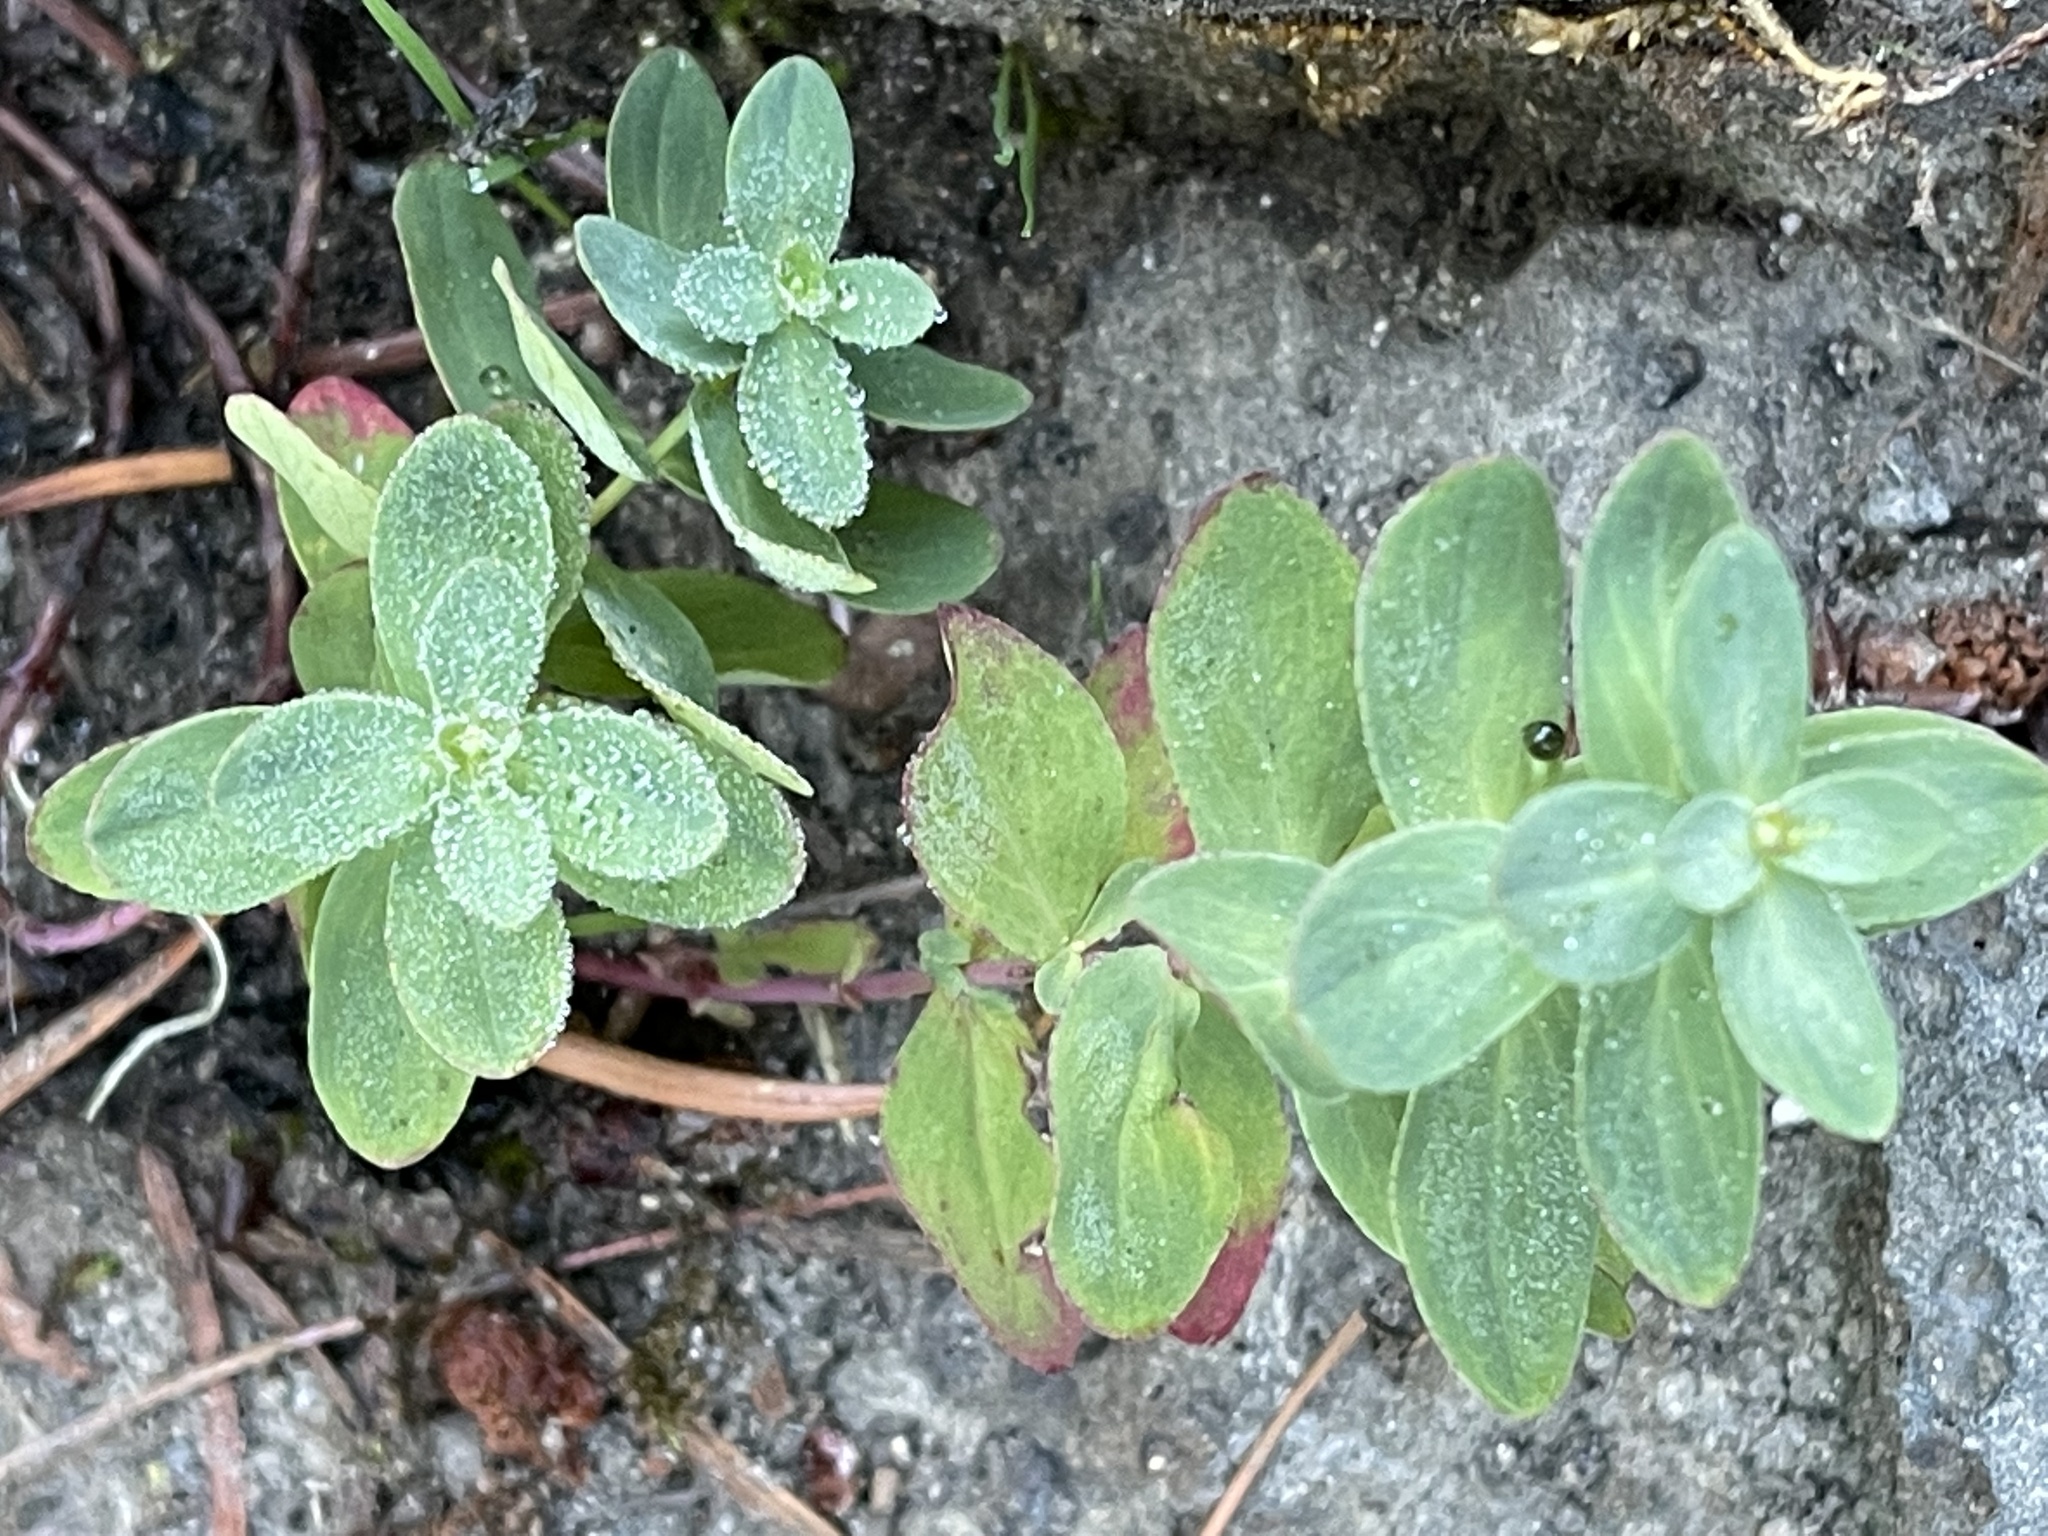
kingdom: Plantae
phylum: Tracheophyta
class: Magnoliopsida
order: Malpighiales
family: Hypericaceae
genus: Hypericum
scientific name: Hypericum scouleri
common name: Scouler's st. john's-wort
